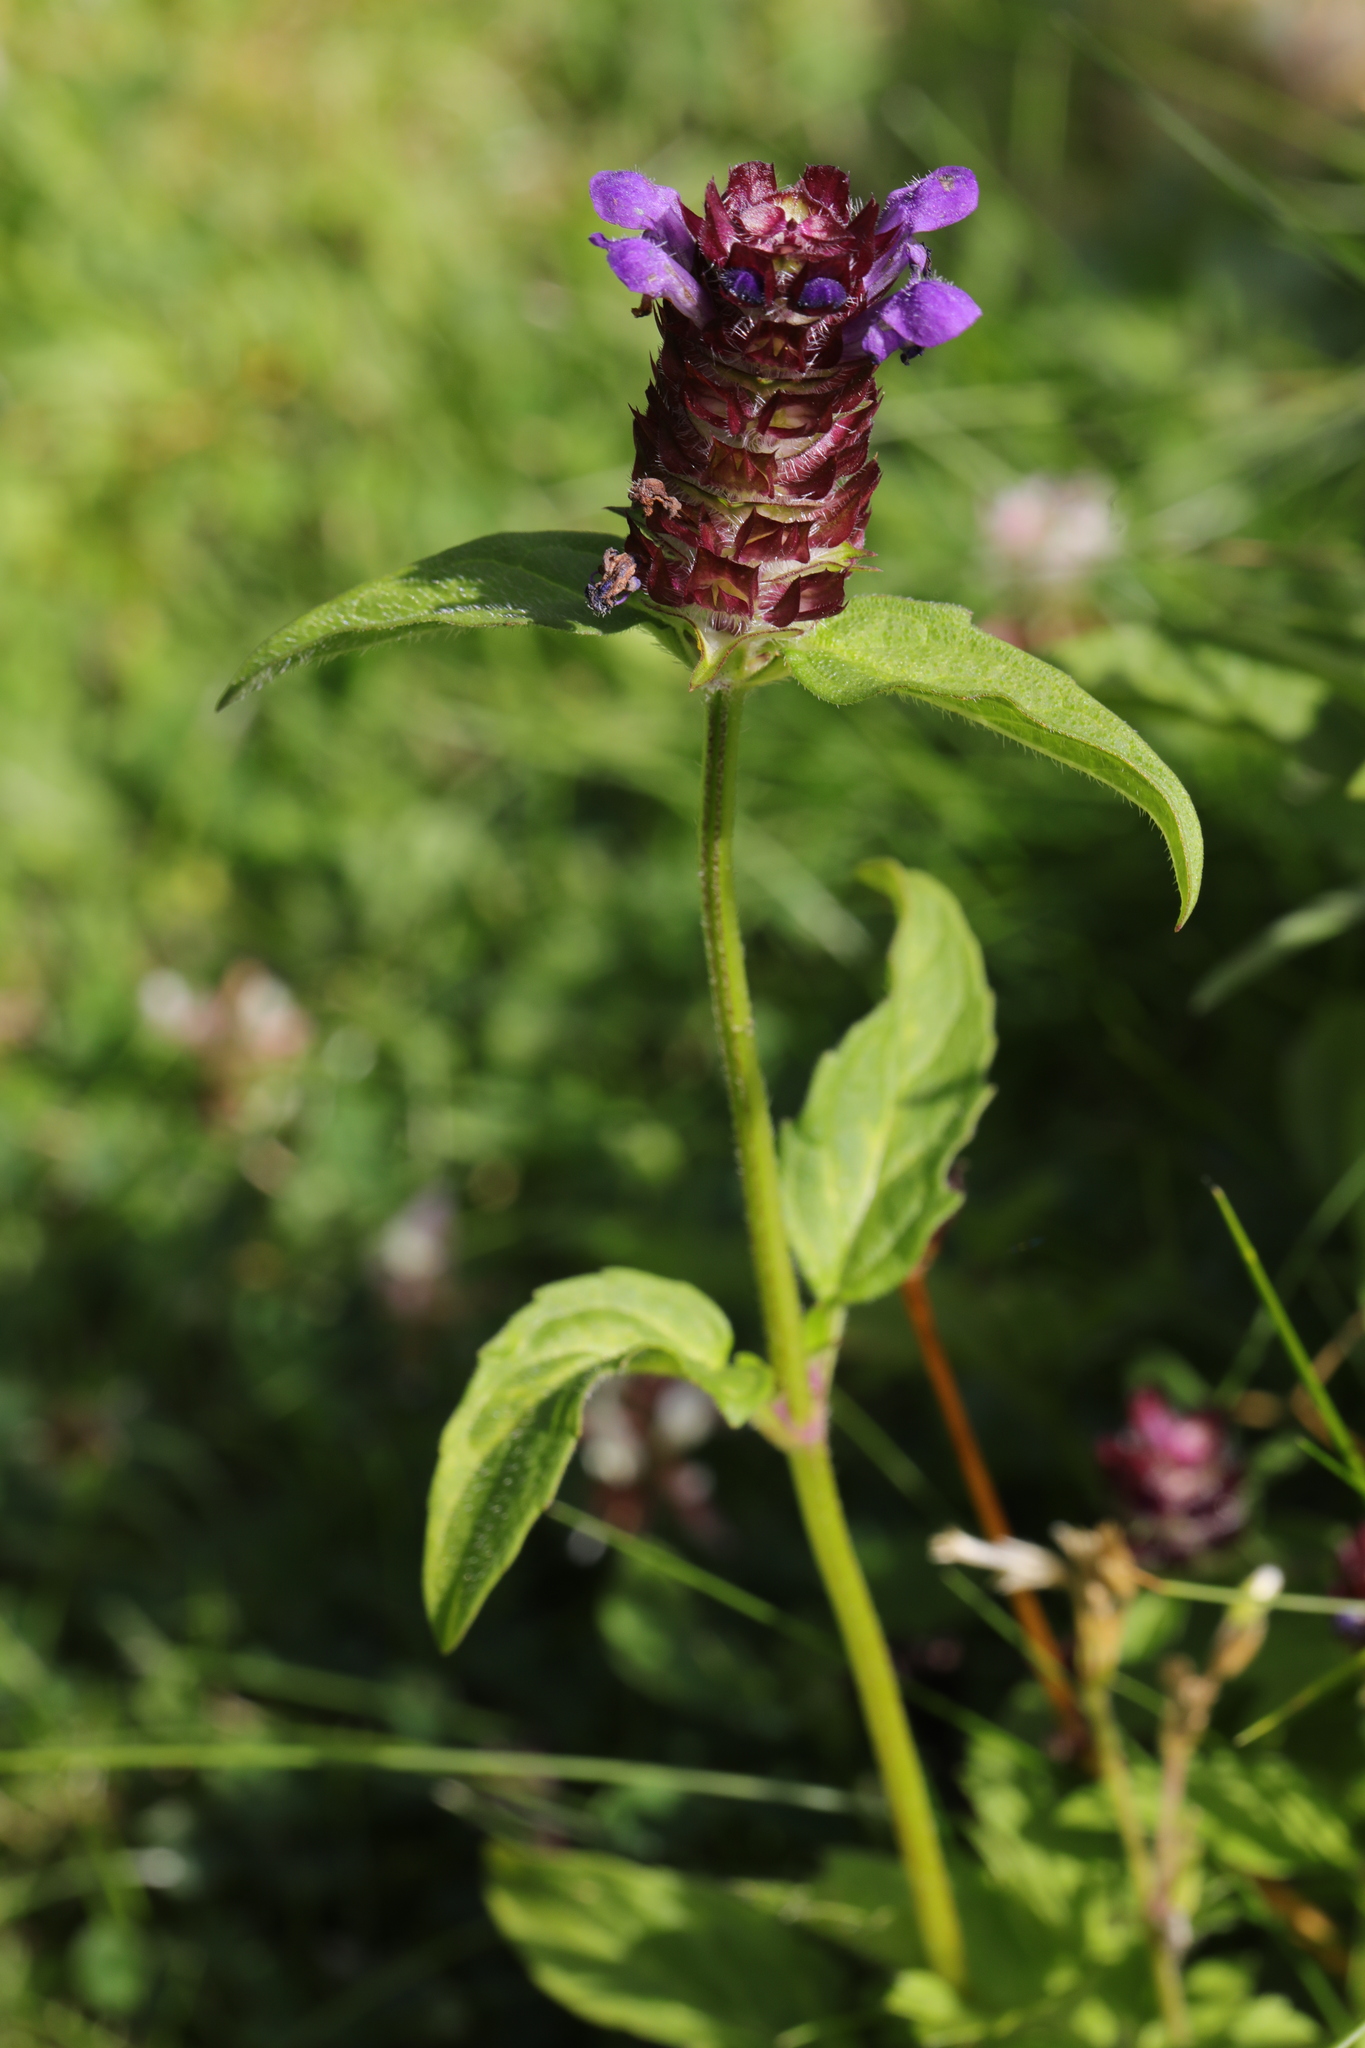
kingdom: Plantae
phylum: Tracheophyta
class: Magnoliopsida
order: Lamiales
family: Lamiaceae
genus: Prunella
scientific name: Prunella vulgaris
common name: Heal-all
